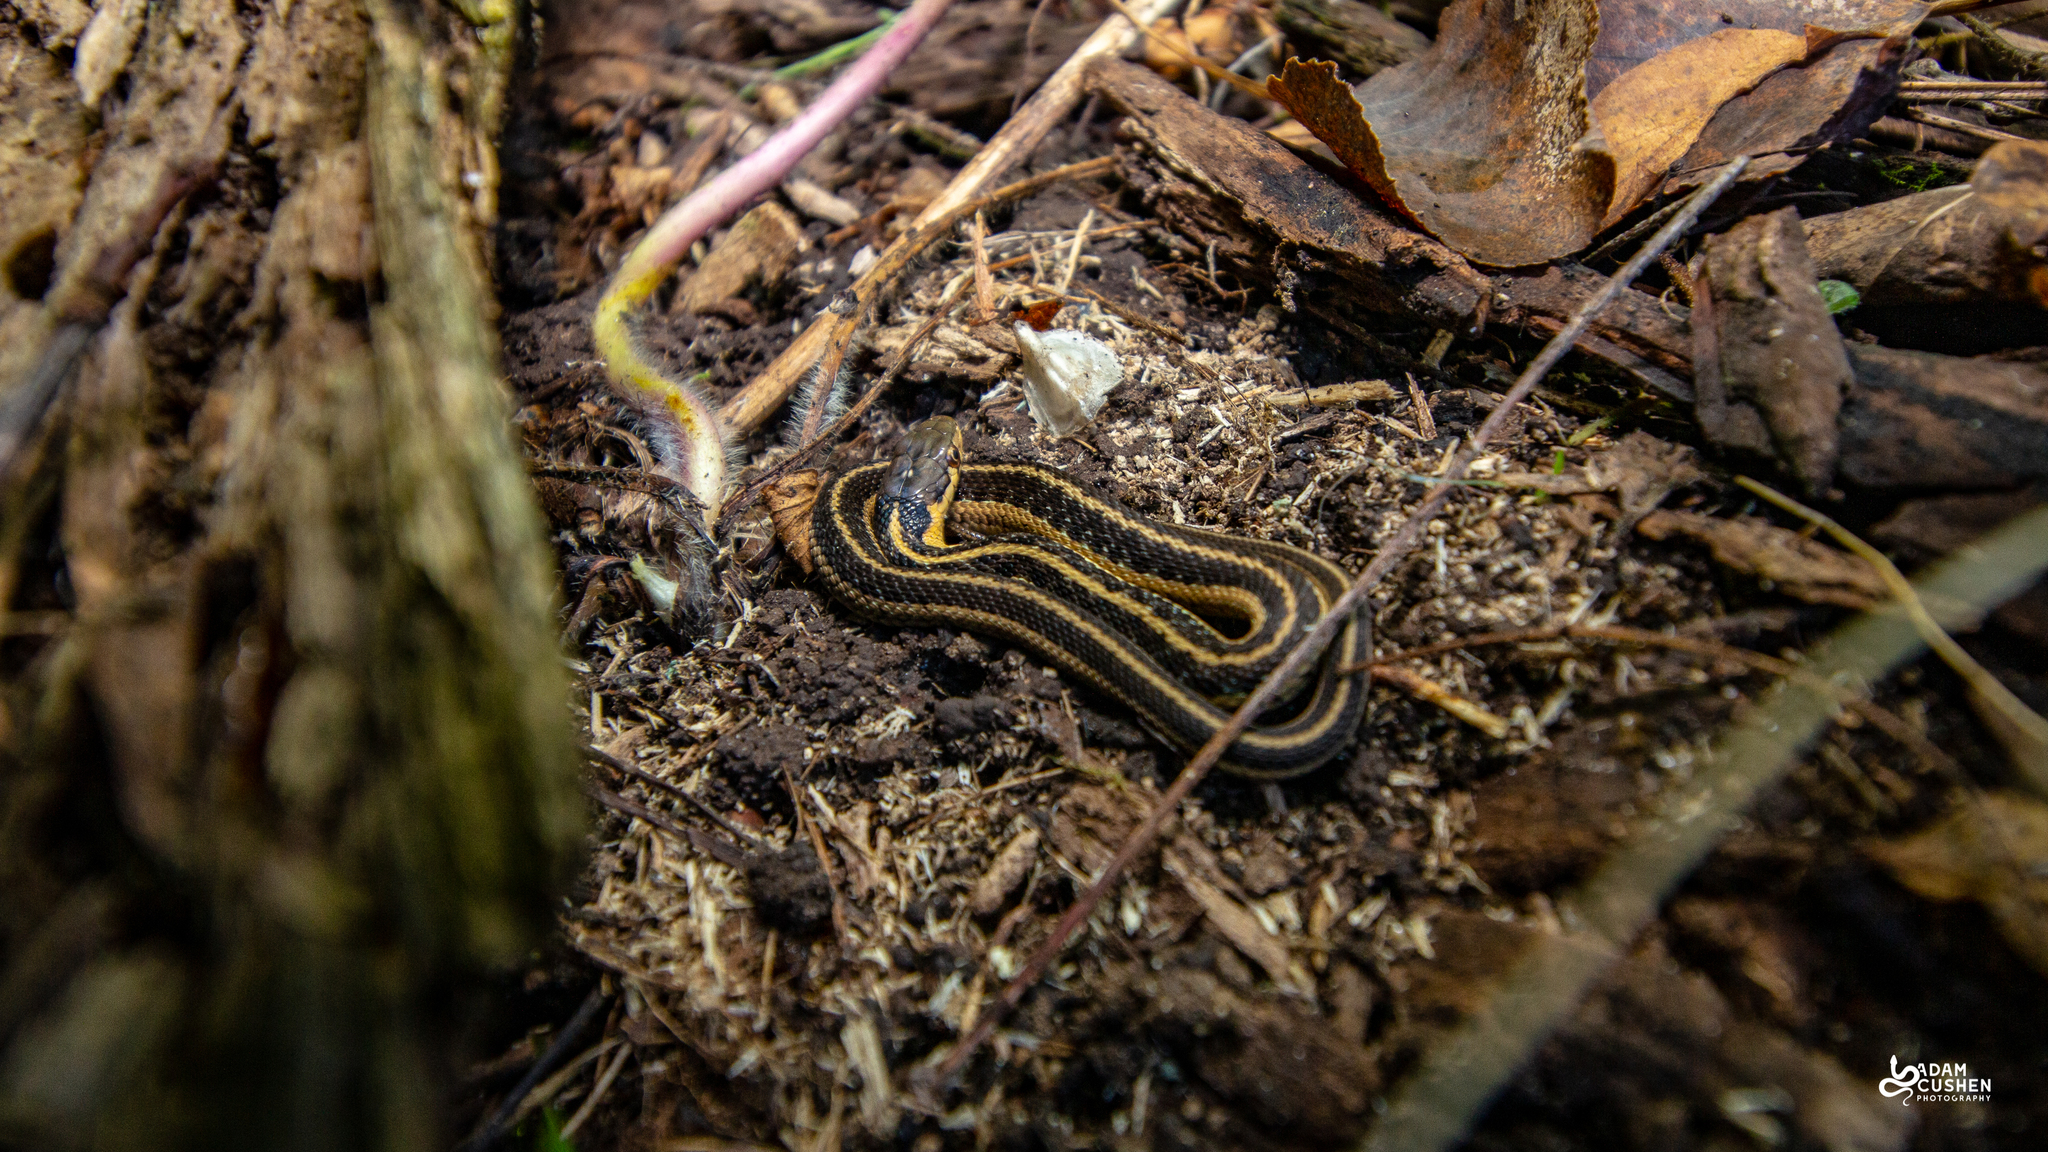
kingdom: Animalia
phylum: Chordata
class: Squamata
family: Colubridae
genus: Thamnophis
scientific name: Thamnophis sirtalis
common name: Common garter snake
